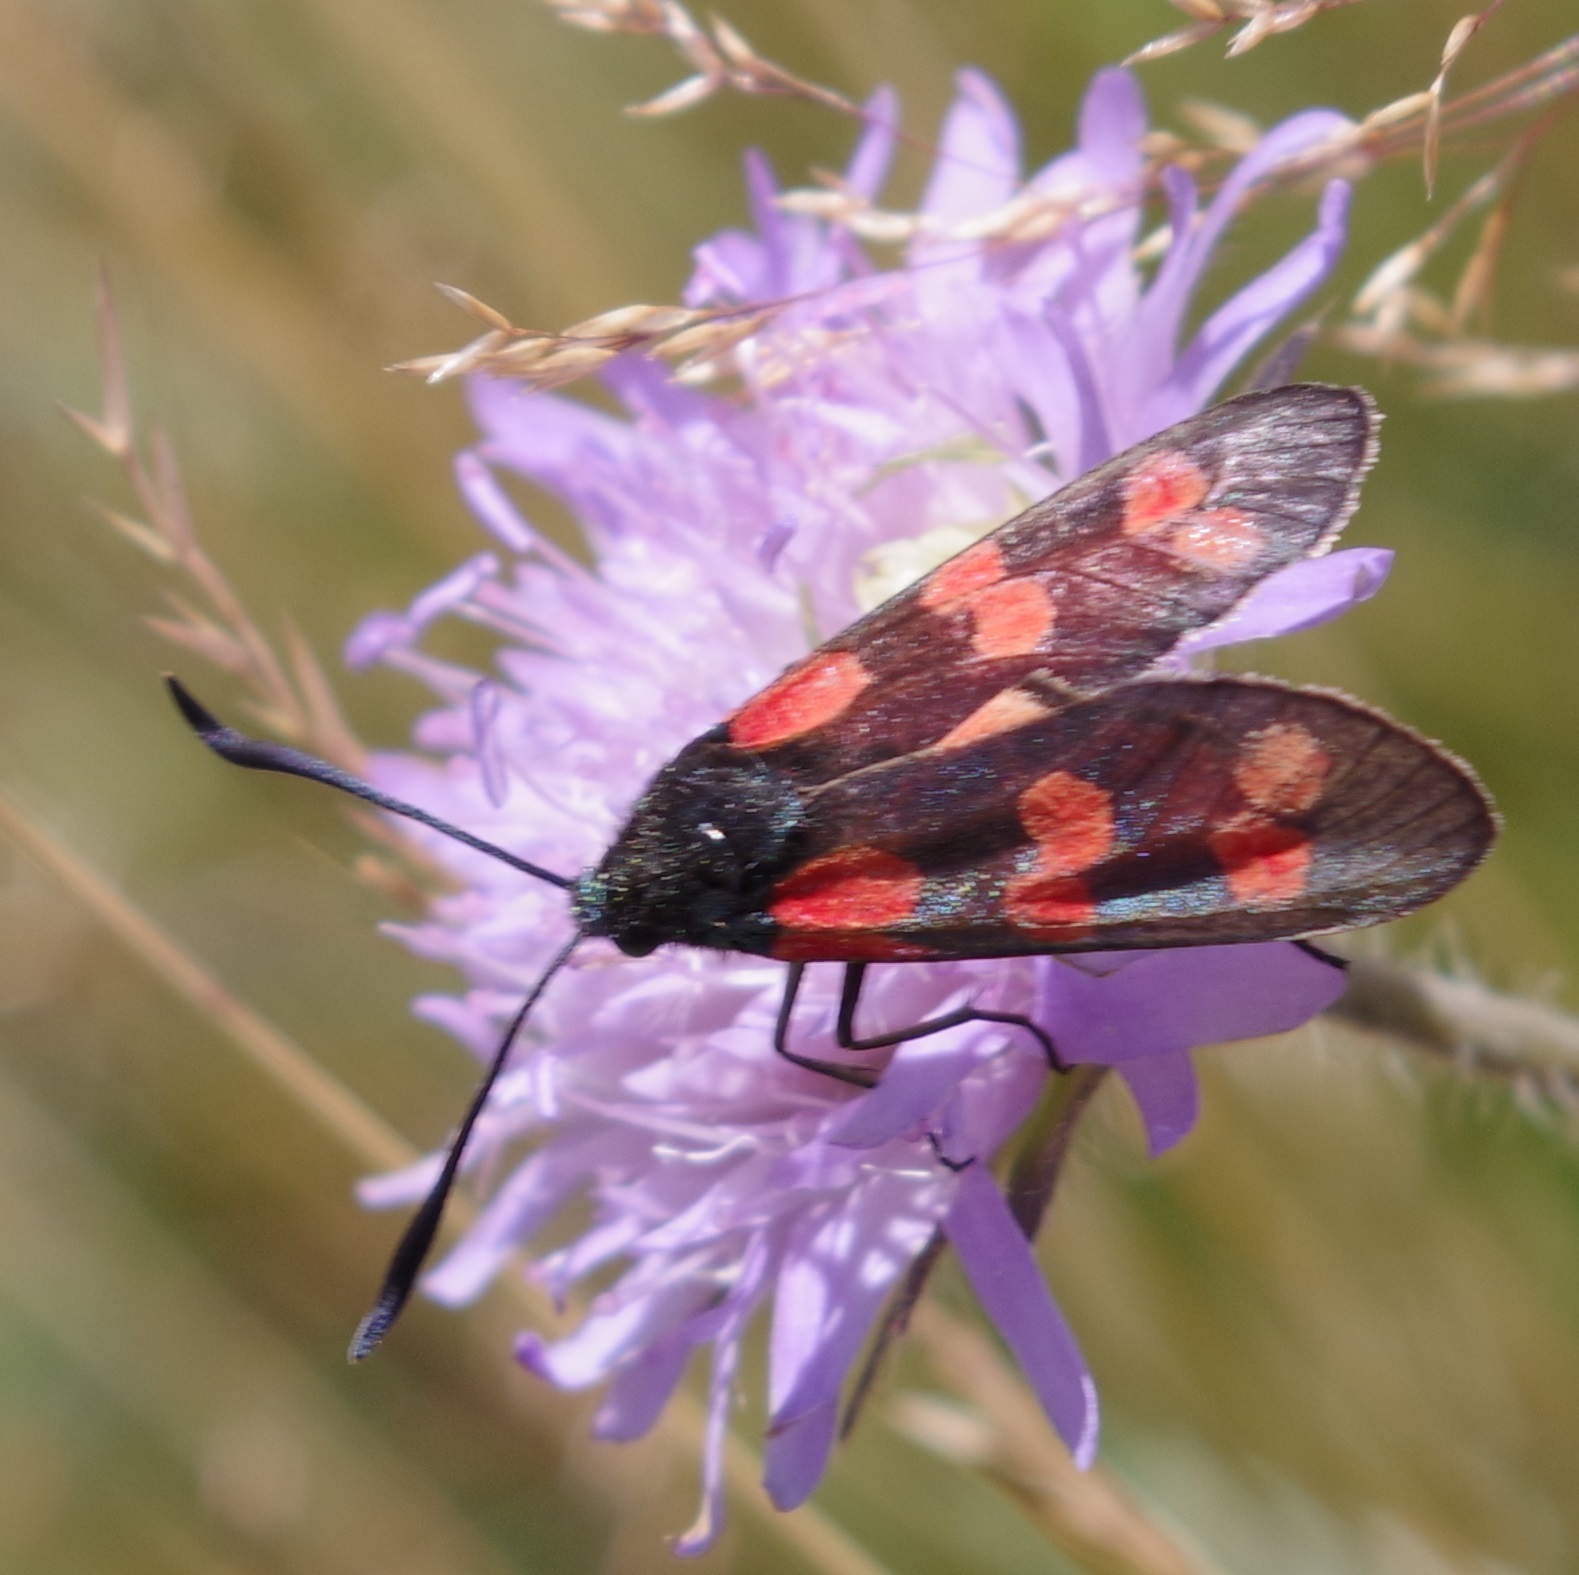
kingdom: Animalia
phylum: Arthropoda
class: Insecta
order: Lepidoptera
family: Zygaenidae
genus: Zygaena
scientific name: Zygaena filipendulae
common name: Six-spot burnet
